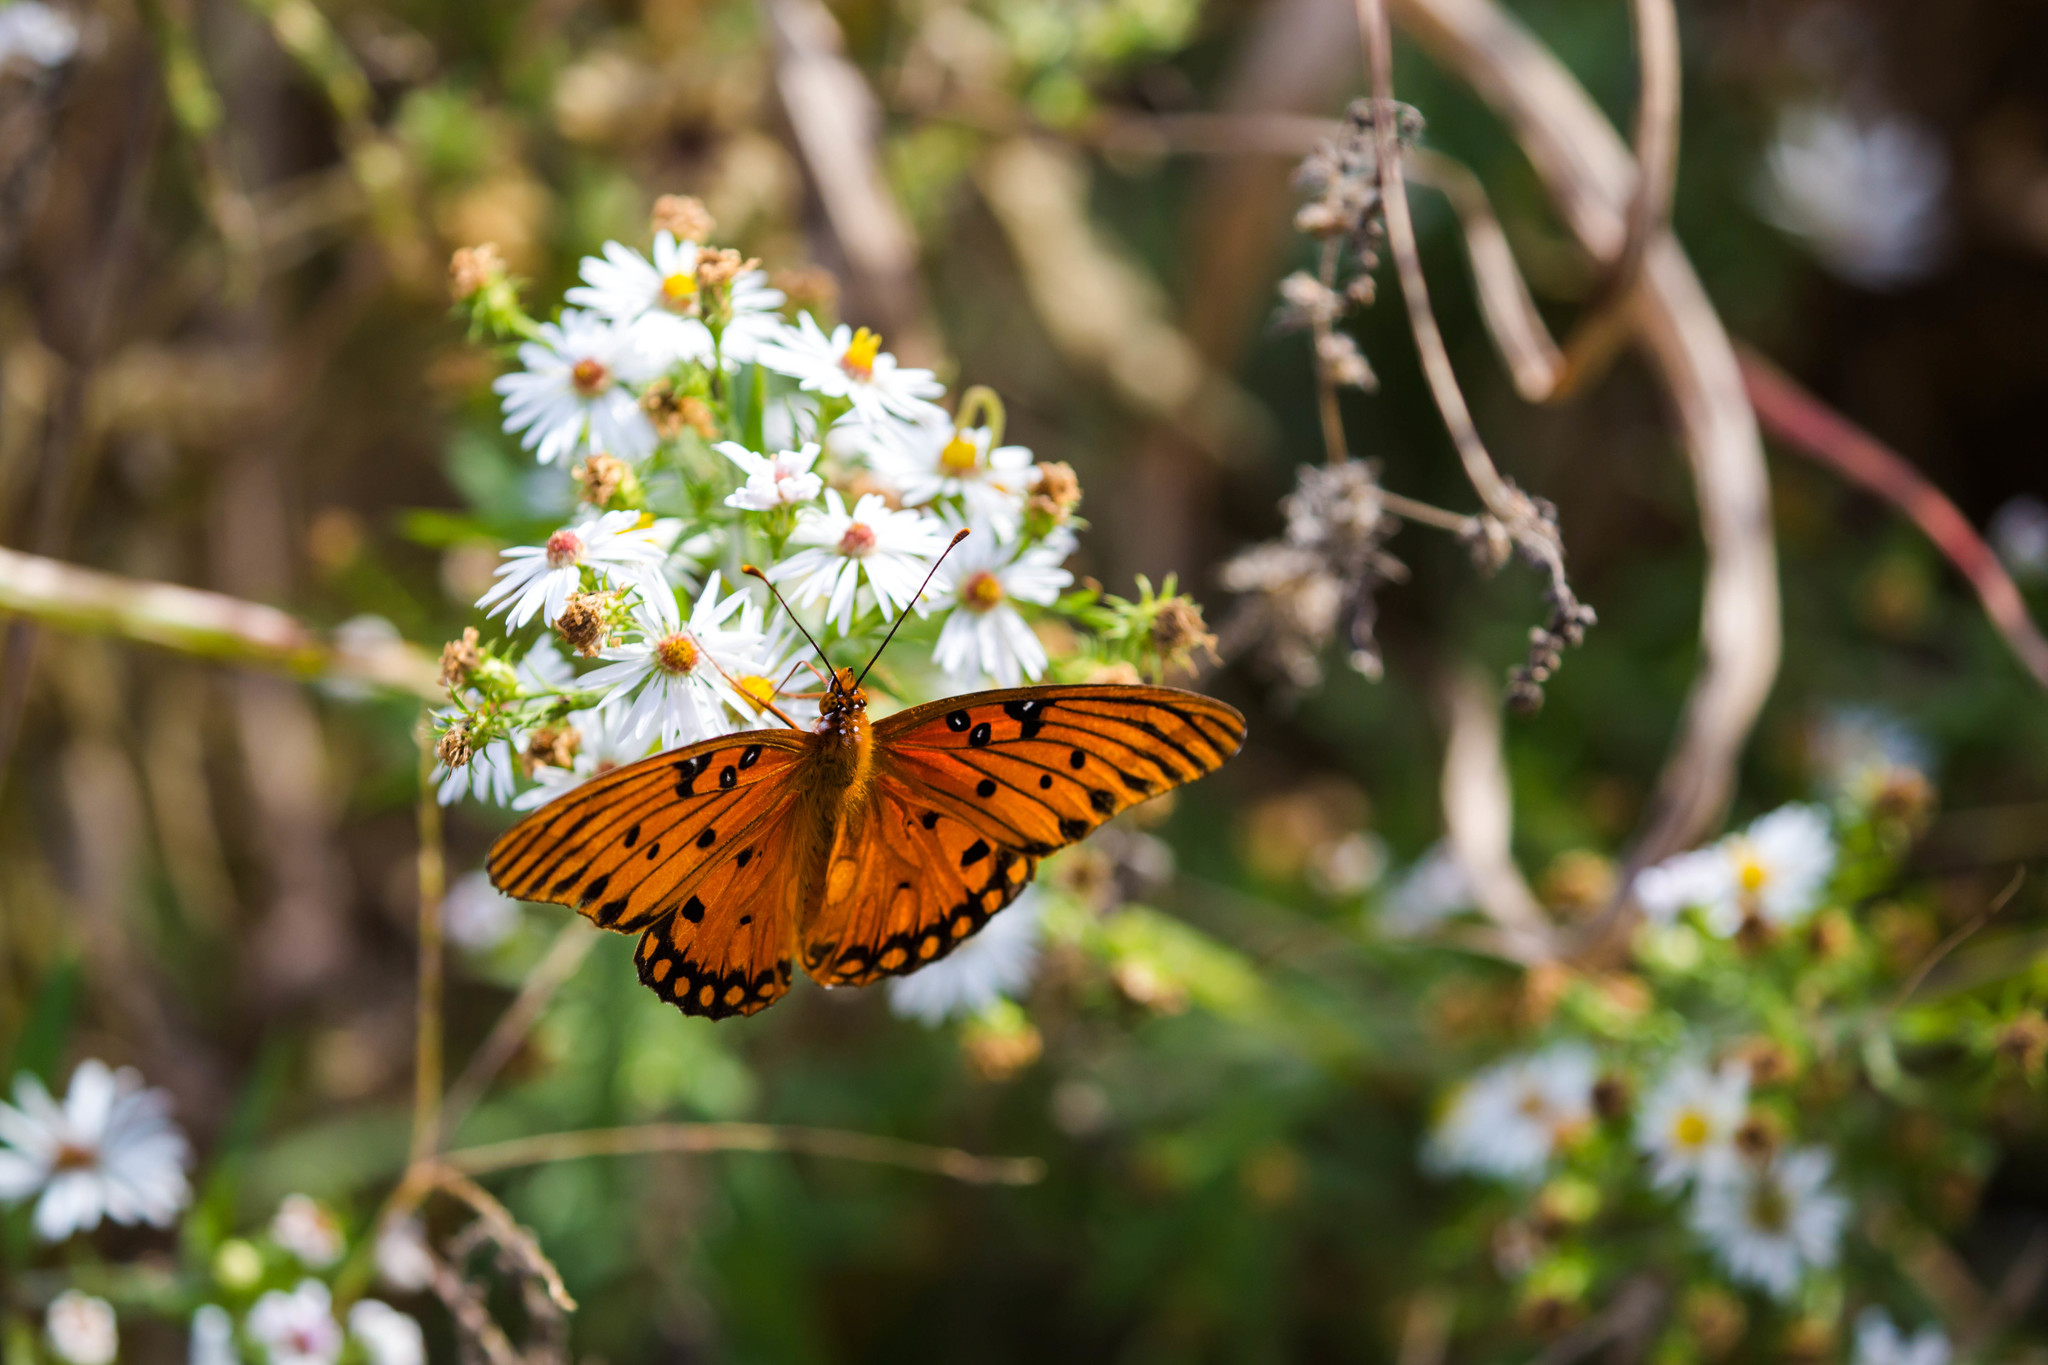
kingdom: Animalia
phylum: Arthropoda
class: Insecta
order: Lepidoptera
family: Nymphalidae
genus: Dione
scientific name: Dione vanillae
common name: Gulf fritillary
